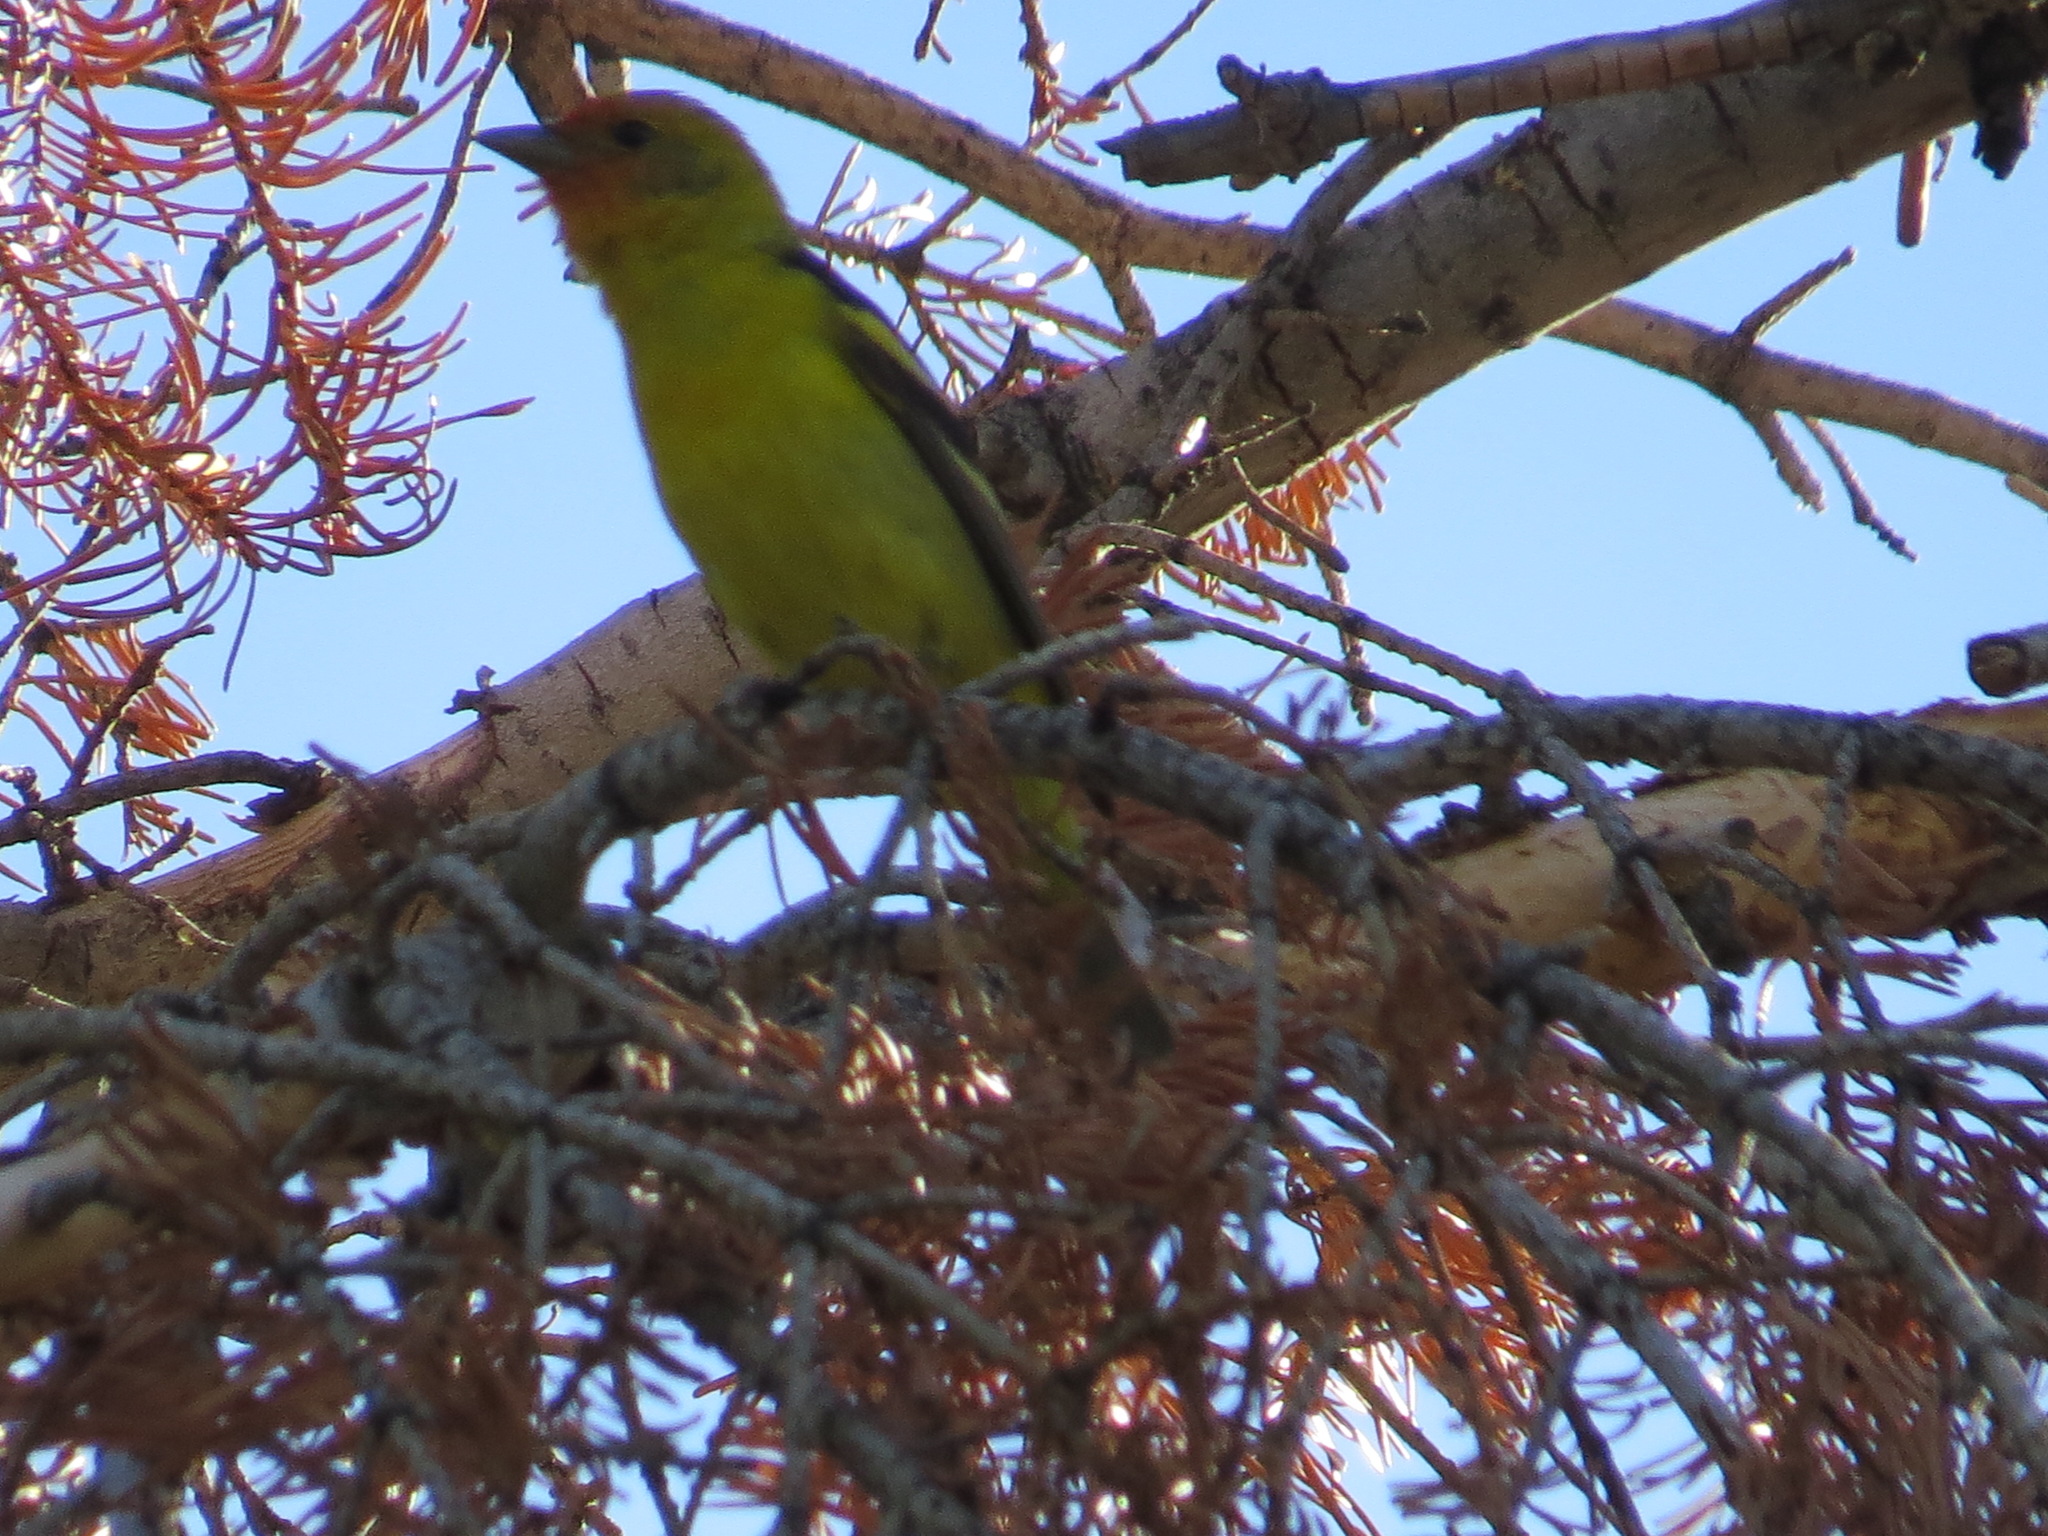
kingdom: Animalia
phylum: Chordata
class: Aves
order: Passeriformes
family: Cardinalidae
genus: Piranga
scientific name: Piranga ludoviciana
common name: Western tanager
